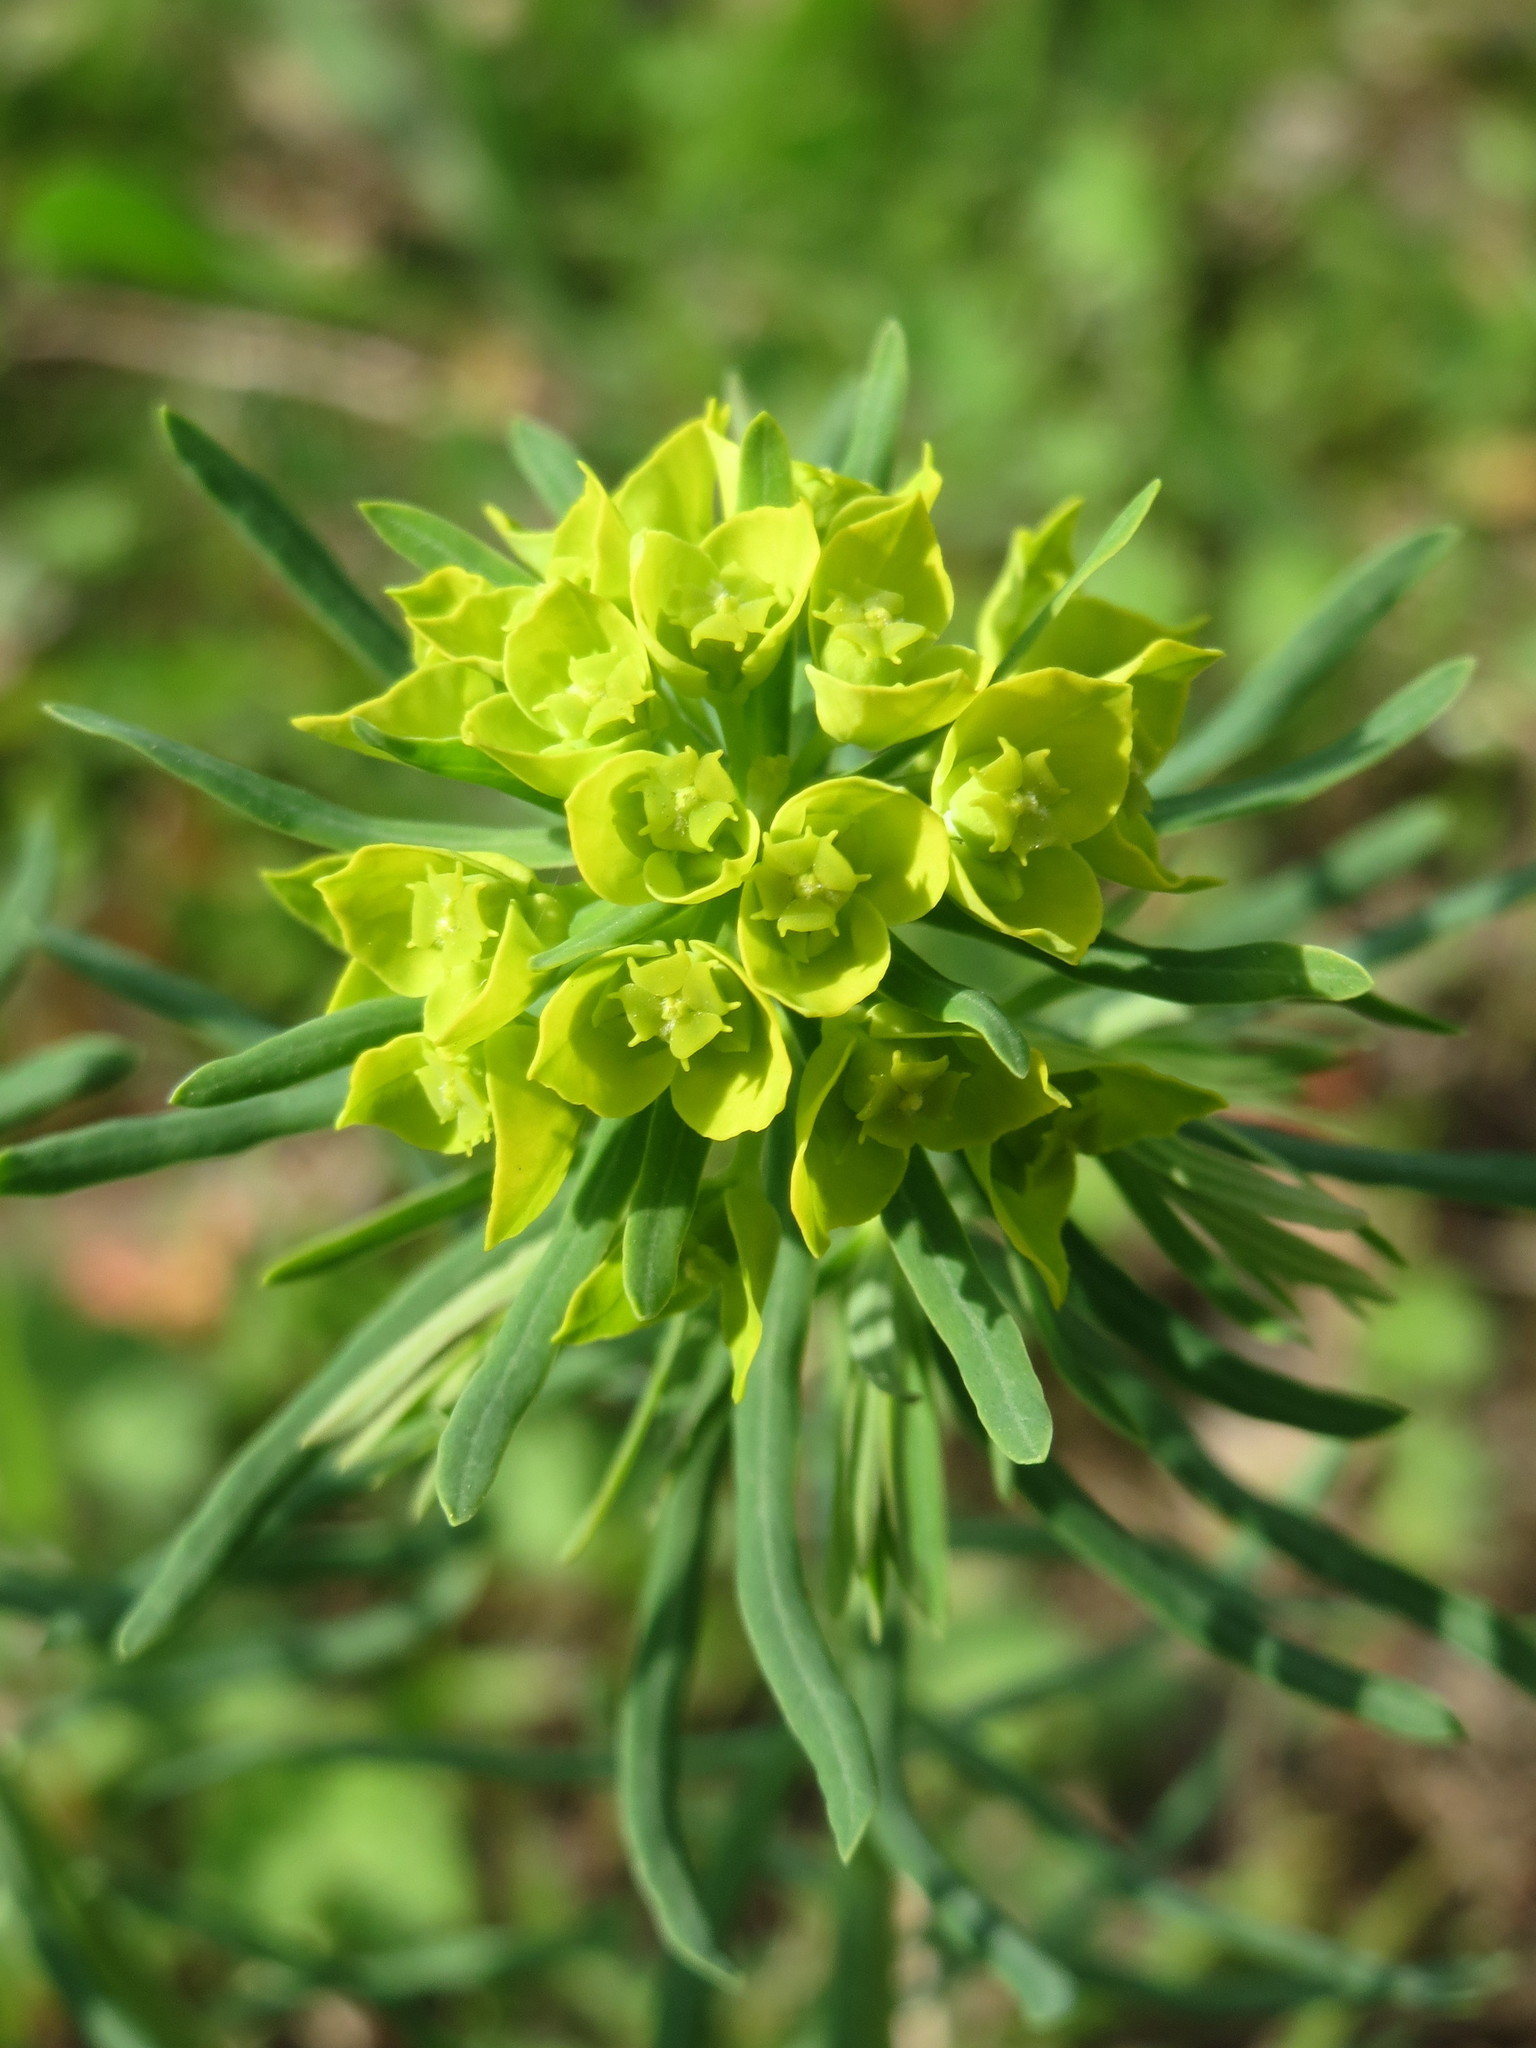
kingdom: Plantae
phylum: Tracheophyta
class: Magnoliopsida
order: Malpighiales
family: Euphorbiaceae
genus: Euphorbia
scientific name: Euphorbia cyparissias
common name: Cypress spurge
